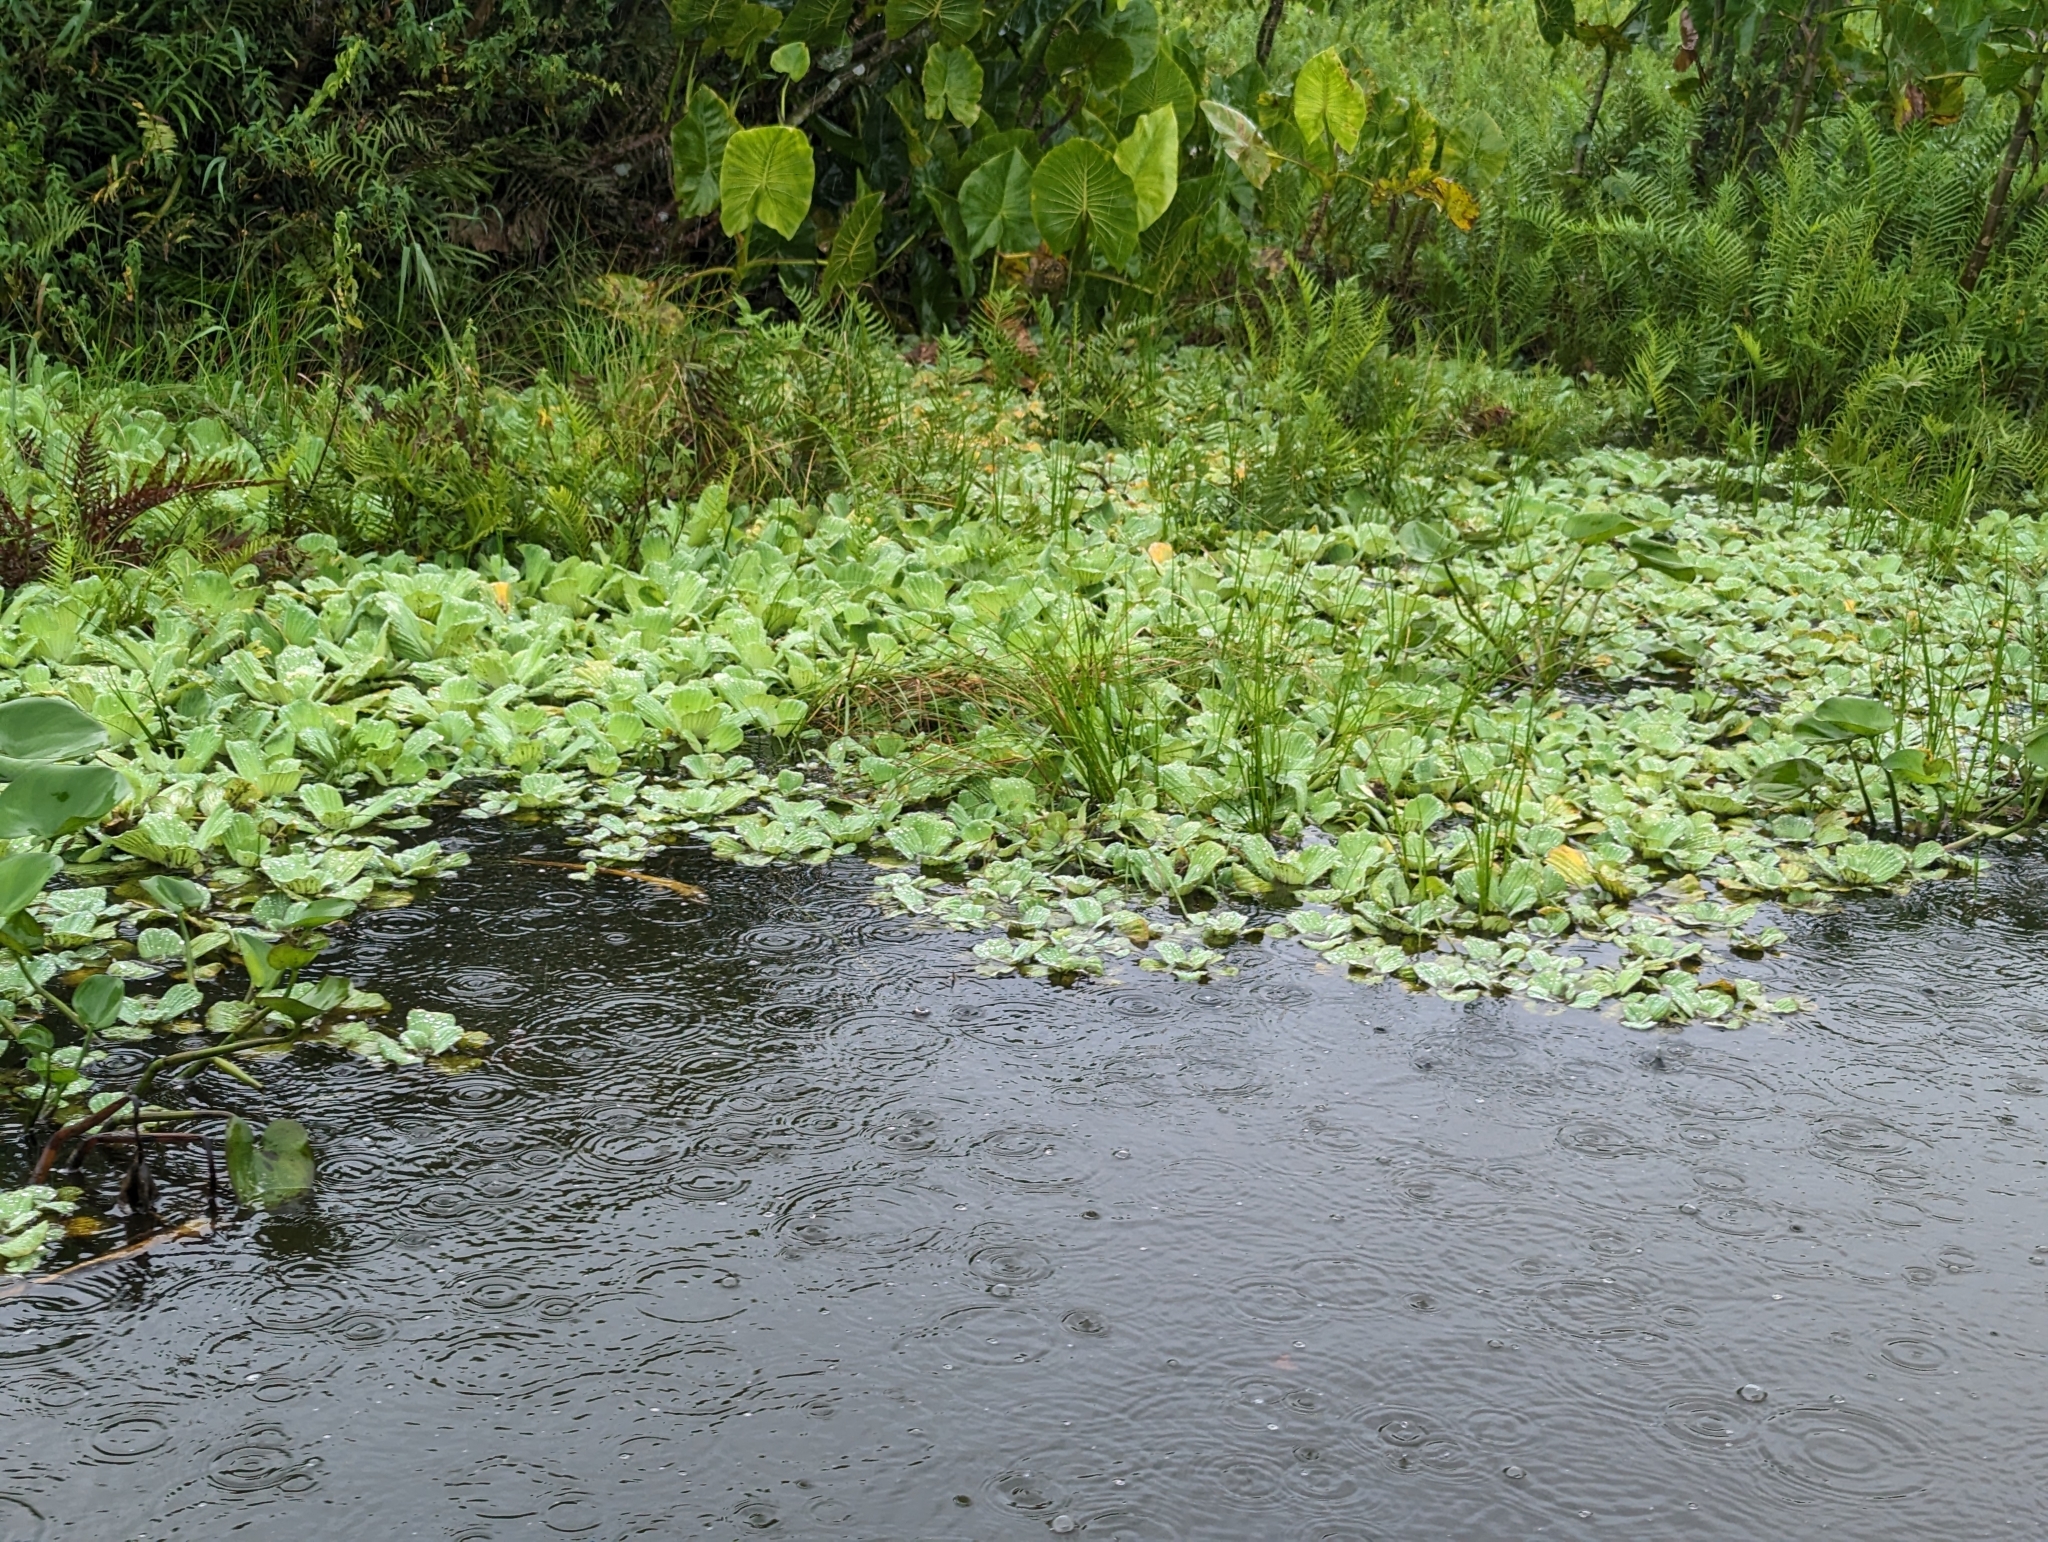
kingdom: Plantae
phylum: Tracheophyta
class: Liliopsida
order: Alismatales
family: Araceae
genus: Pistia
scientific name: Pistia stratiotes
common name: Water lettuce
